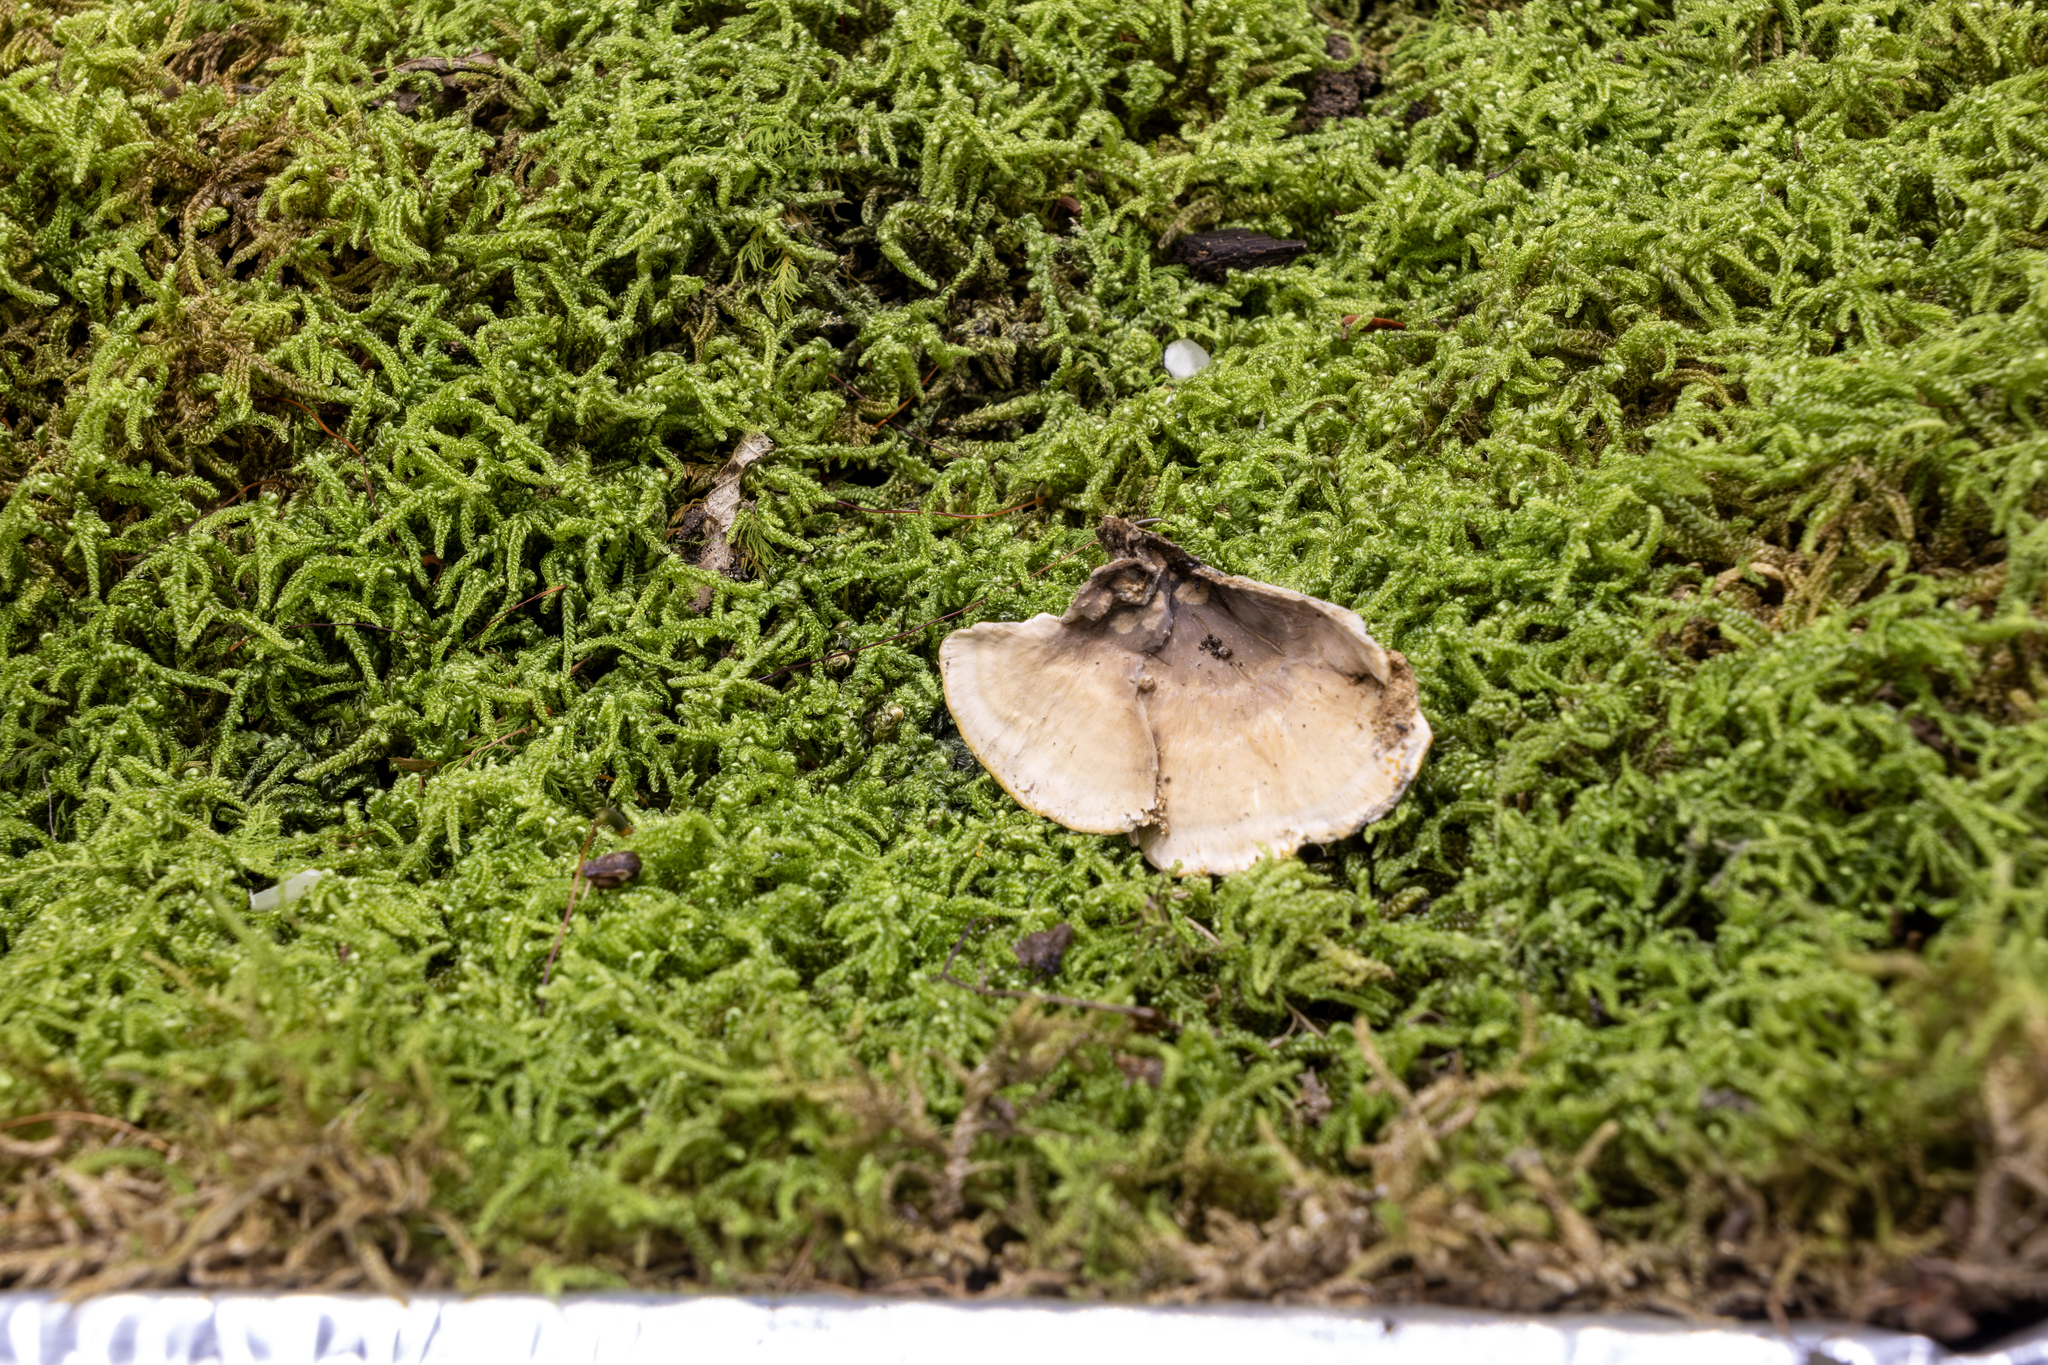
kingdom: Fungi
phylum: Basidiomycota
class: Agaricomycetes
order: Russulales
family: Stereaceae
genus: Stereum
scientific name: Stereum ostrea
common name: False turkeytail
